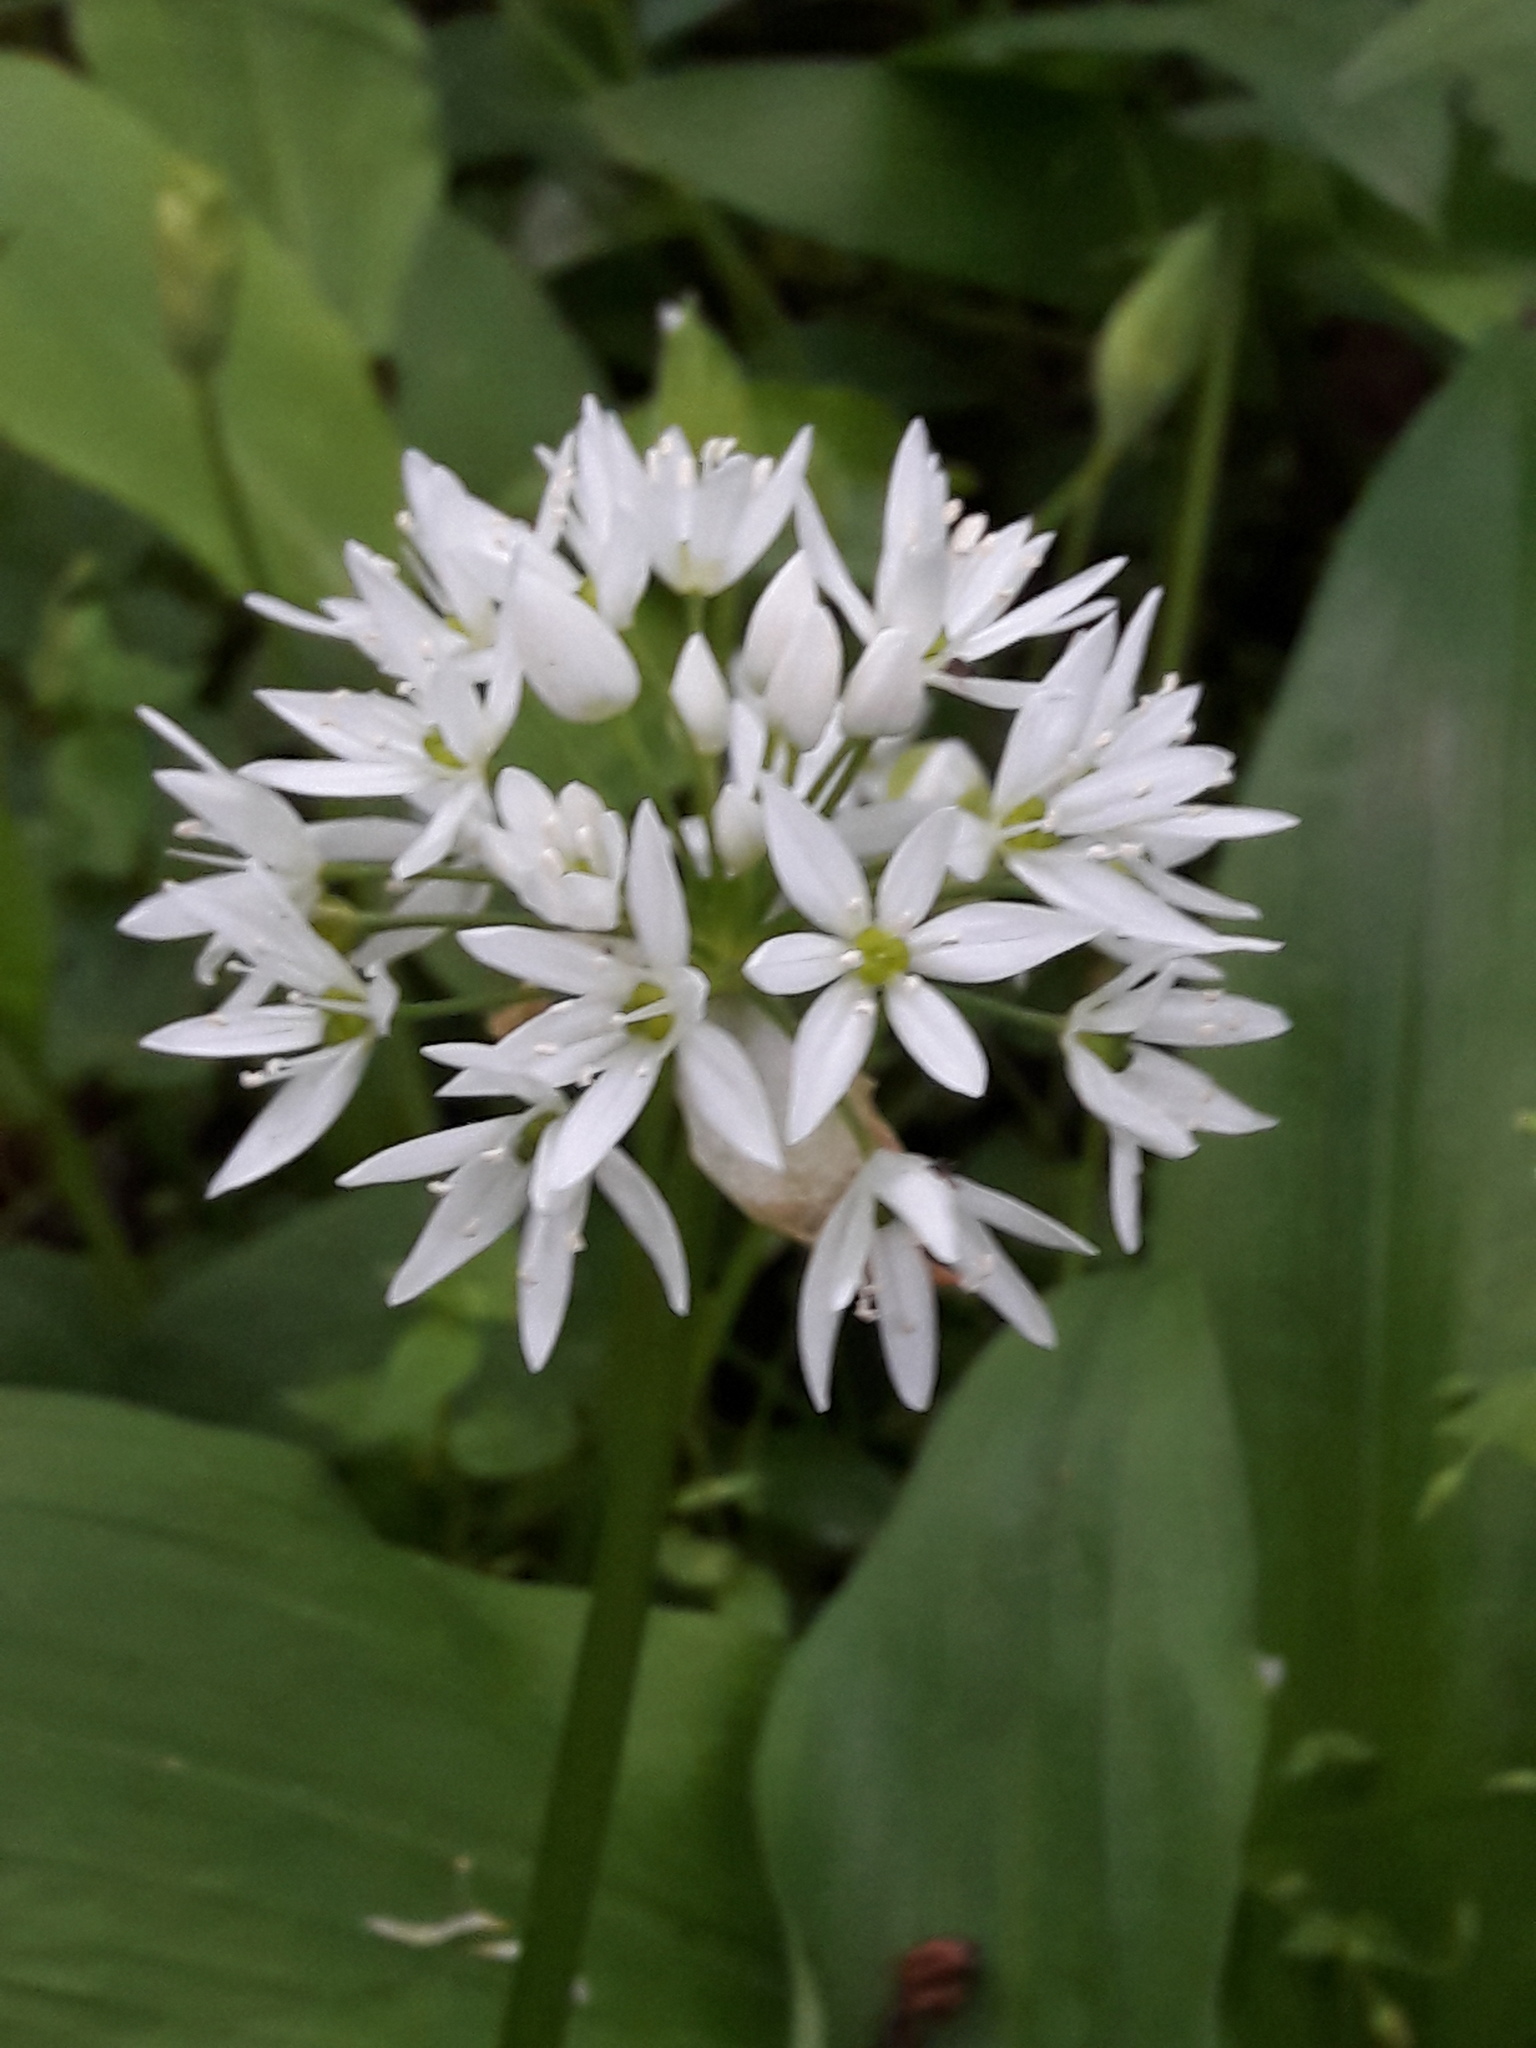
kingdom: Plantae
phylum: Tracheophyta
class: Liliopsida
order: Asparagales
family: Amaryllidaceae
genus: Allium
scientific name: Allium ursinum
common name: Ramsons
